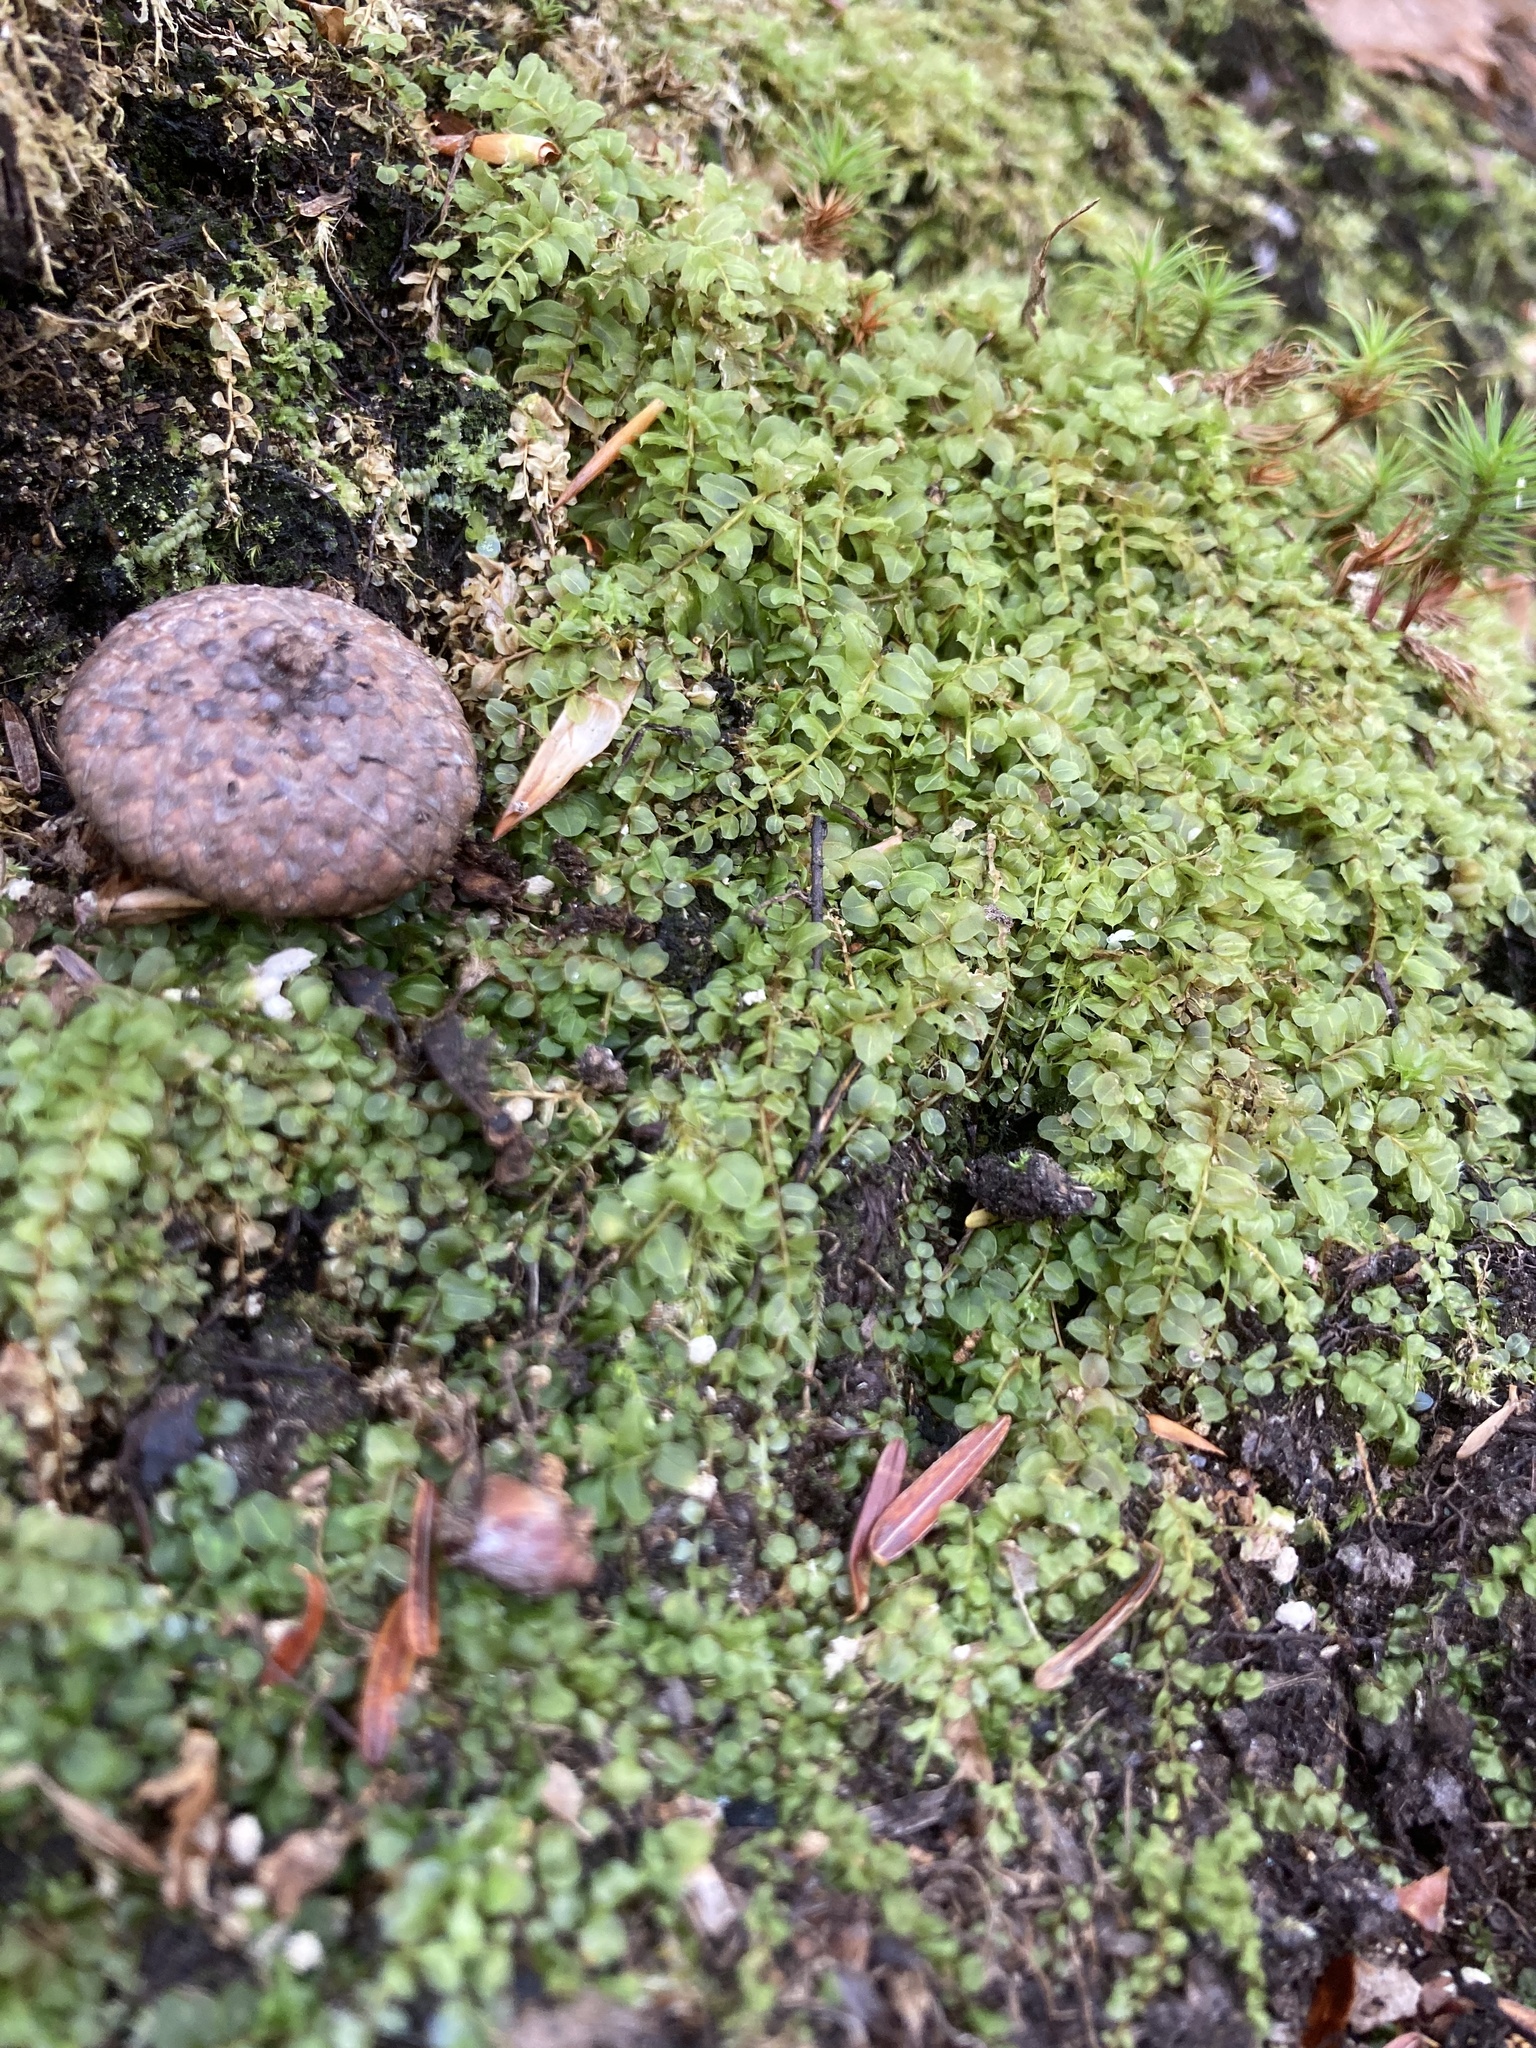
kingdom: Plantae
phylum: Bryophyta
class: Bryopsida
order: Bryales
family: Mniaceae
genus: Plagiomnium
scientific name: Plagiomnium ciliare
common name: Toothed leafy moss
